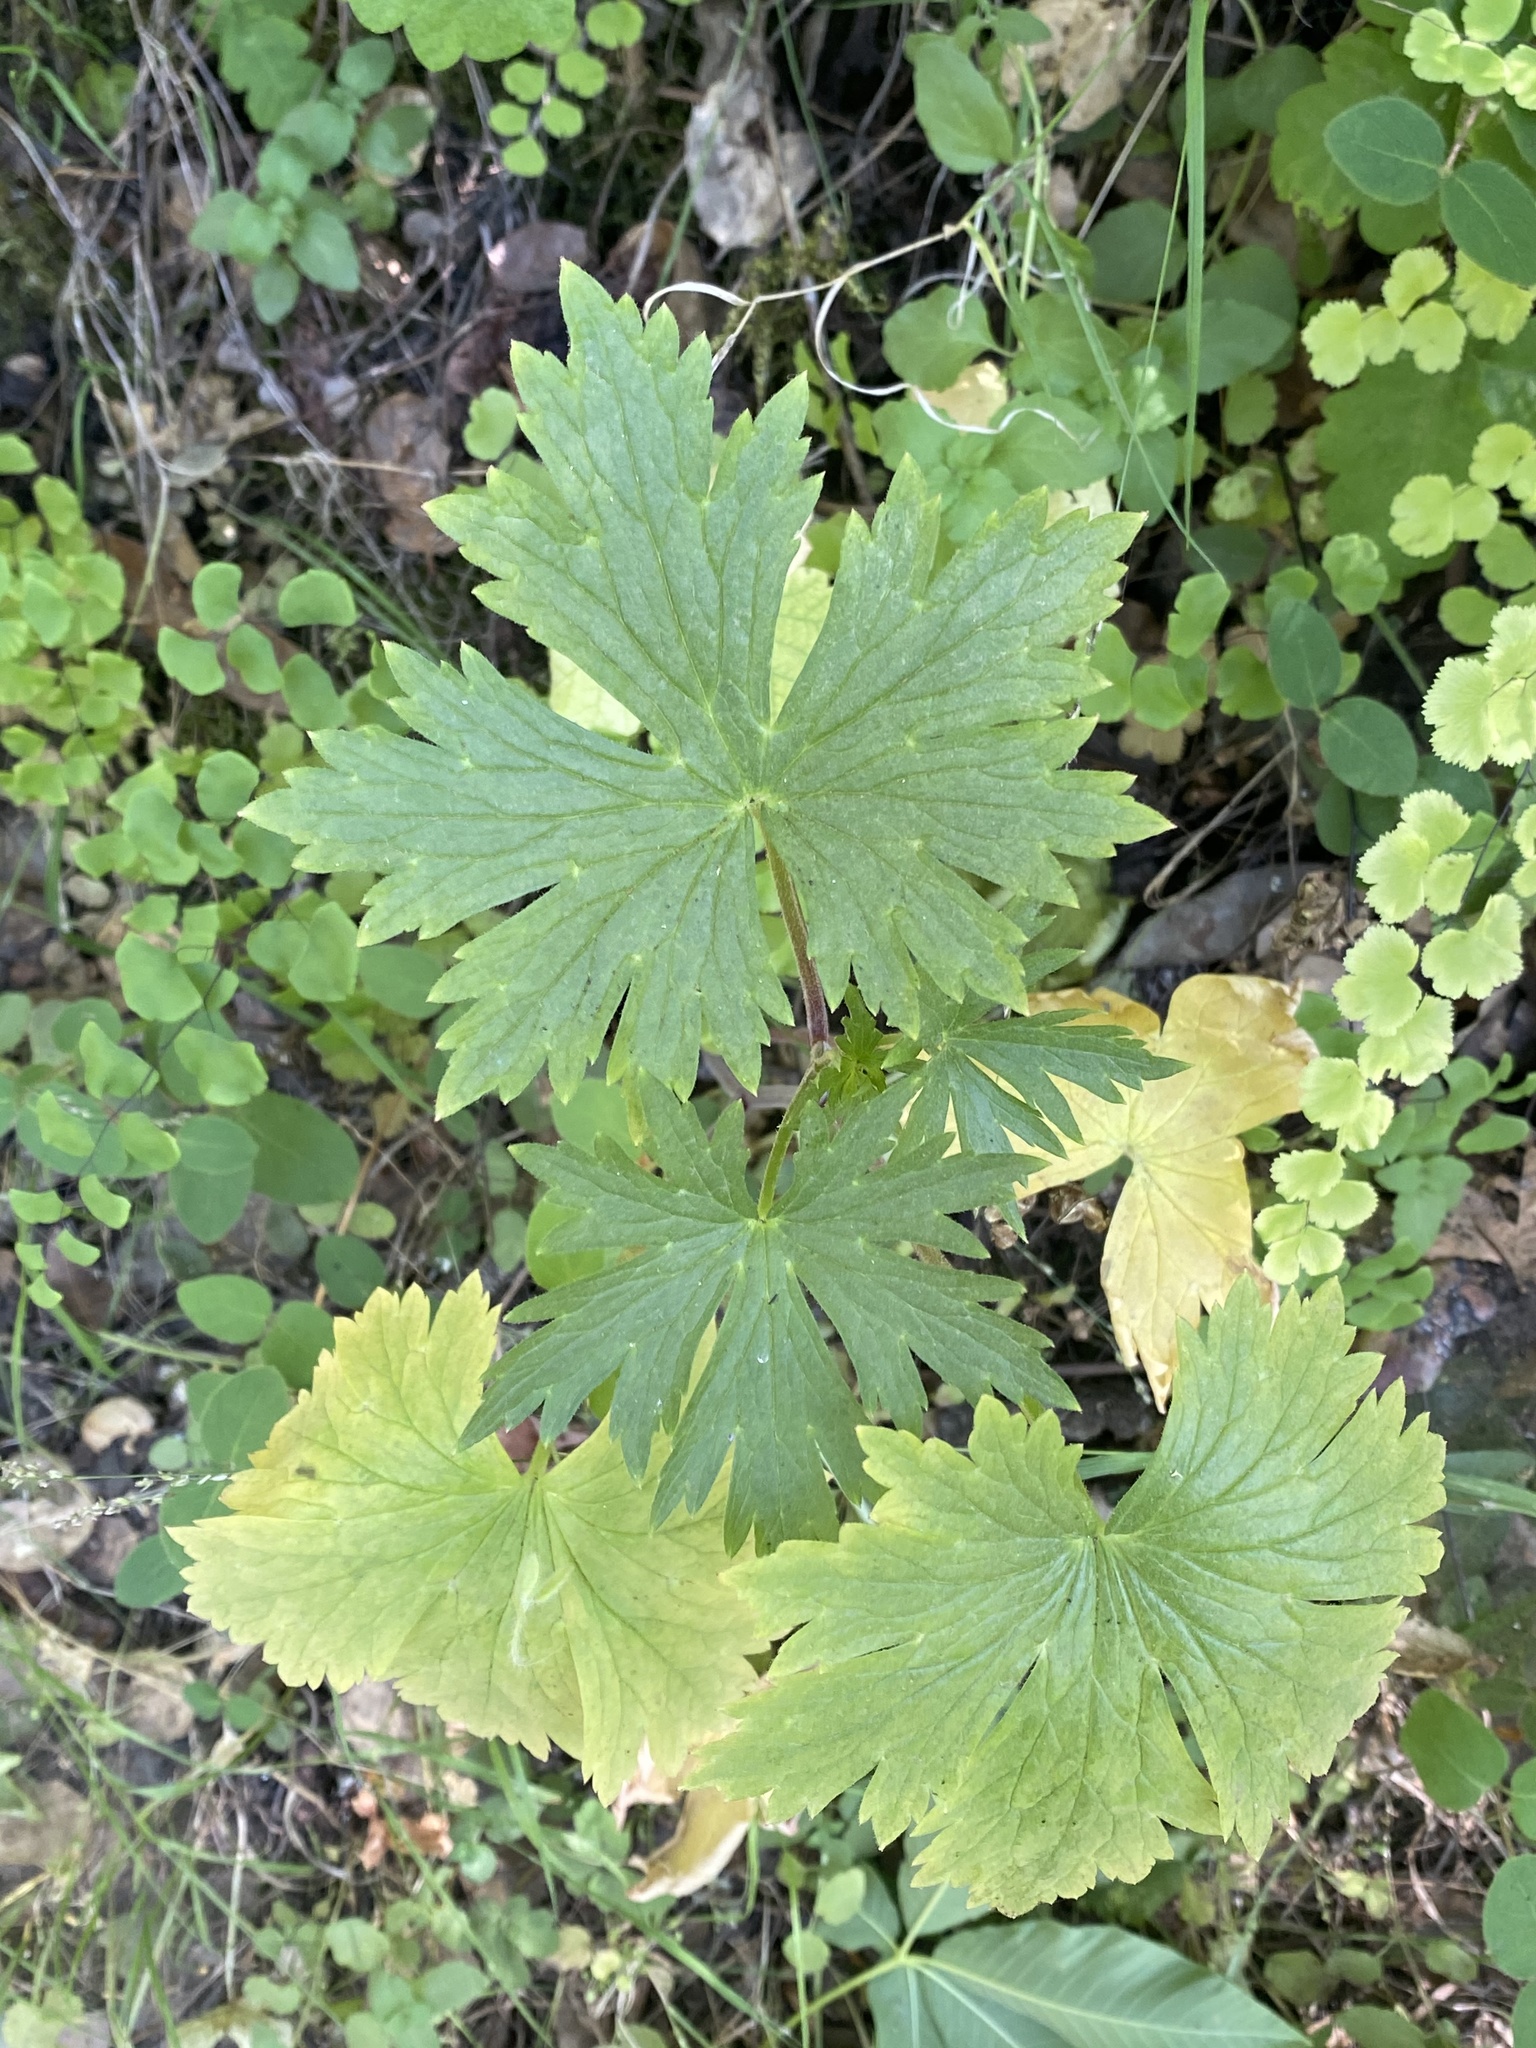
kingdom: Plantae
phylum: Tracheophyta
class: Magnoliopsida
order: Ranunculales
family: Ranunculaceae
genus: Delphinium
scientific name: Delphinium californicum
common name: California larkspur
